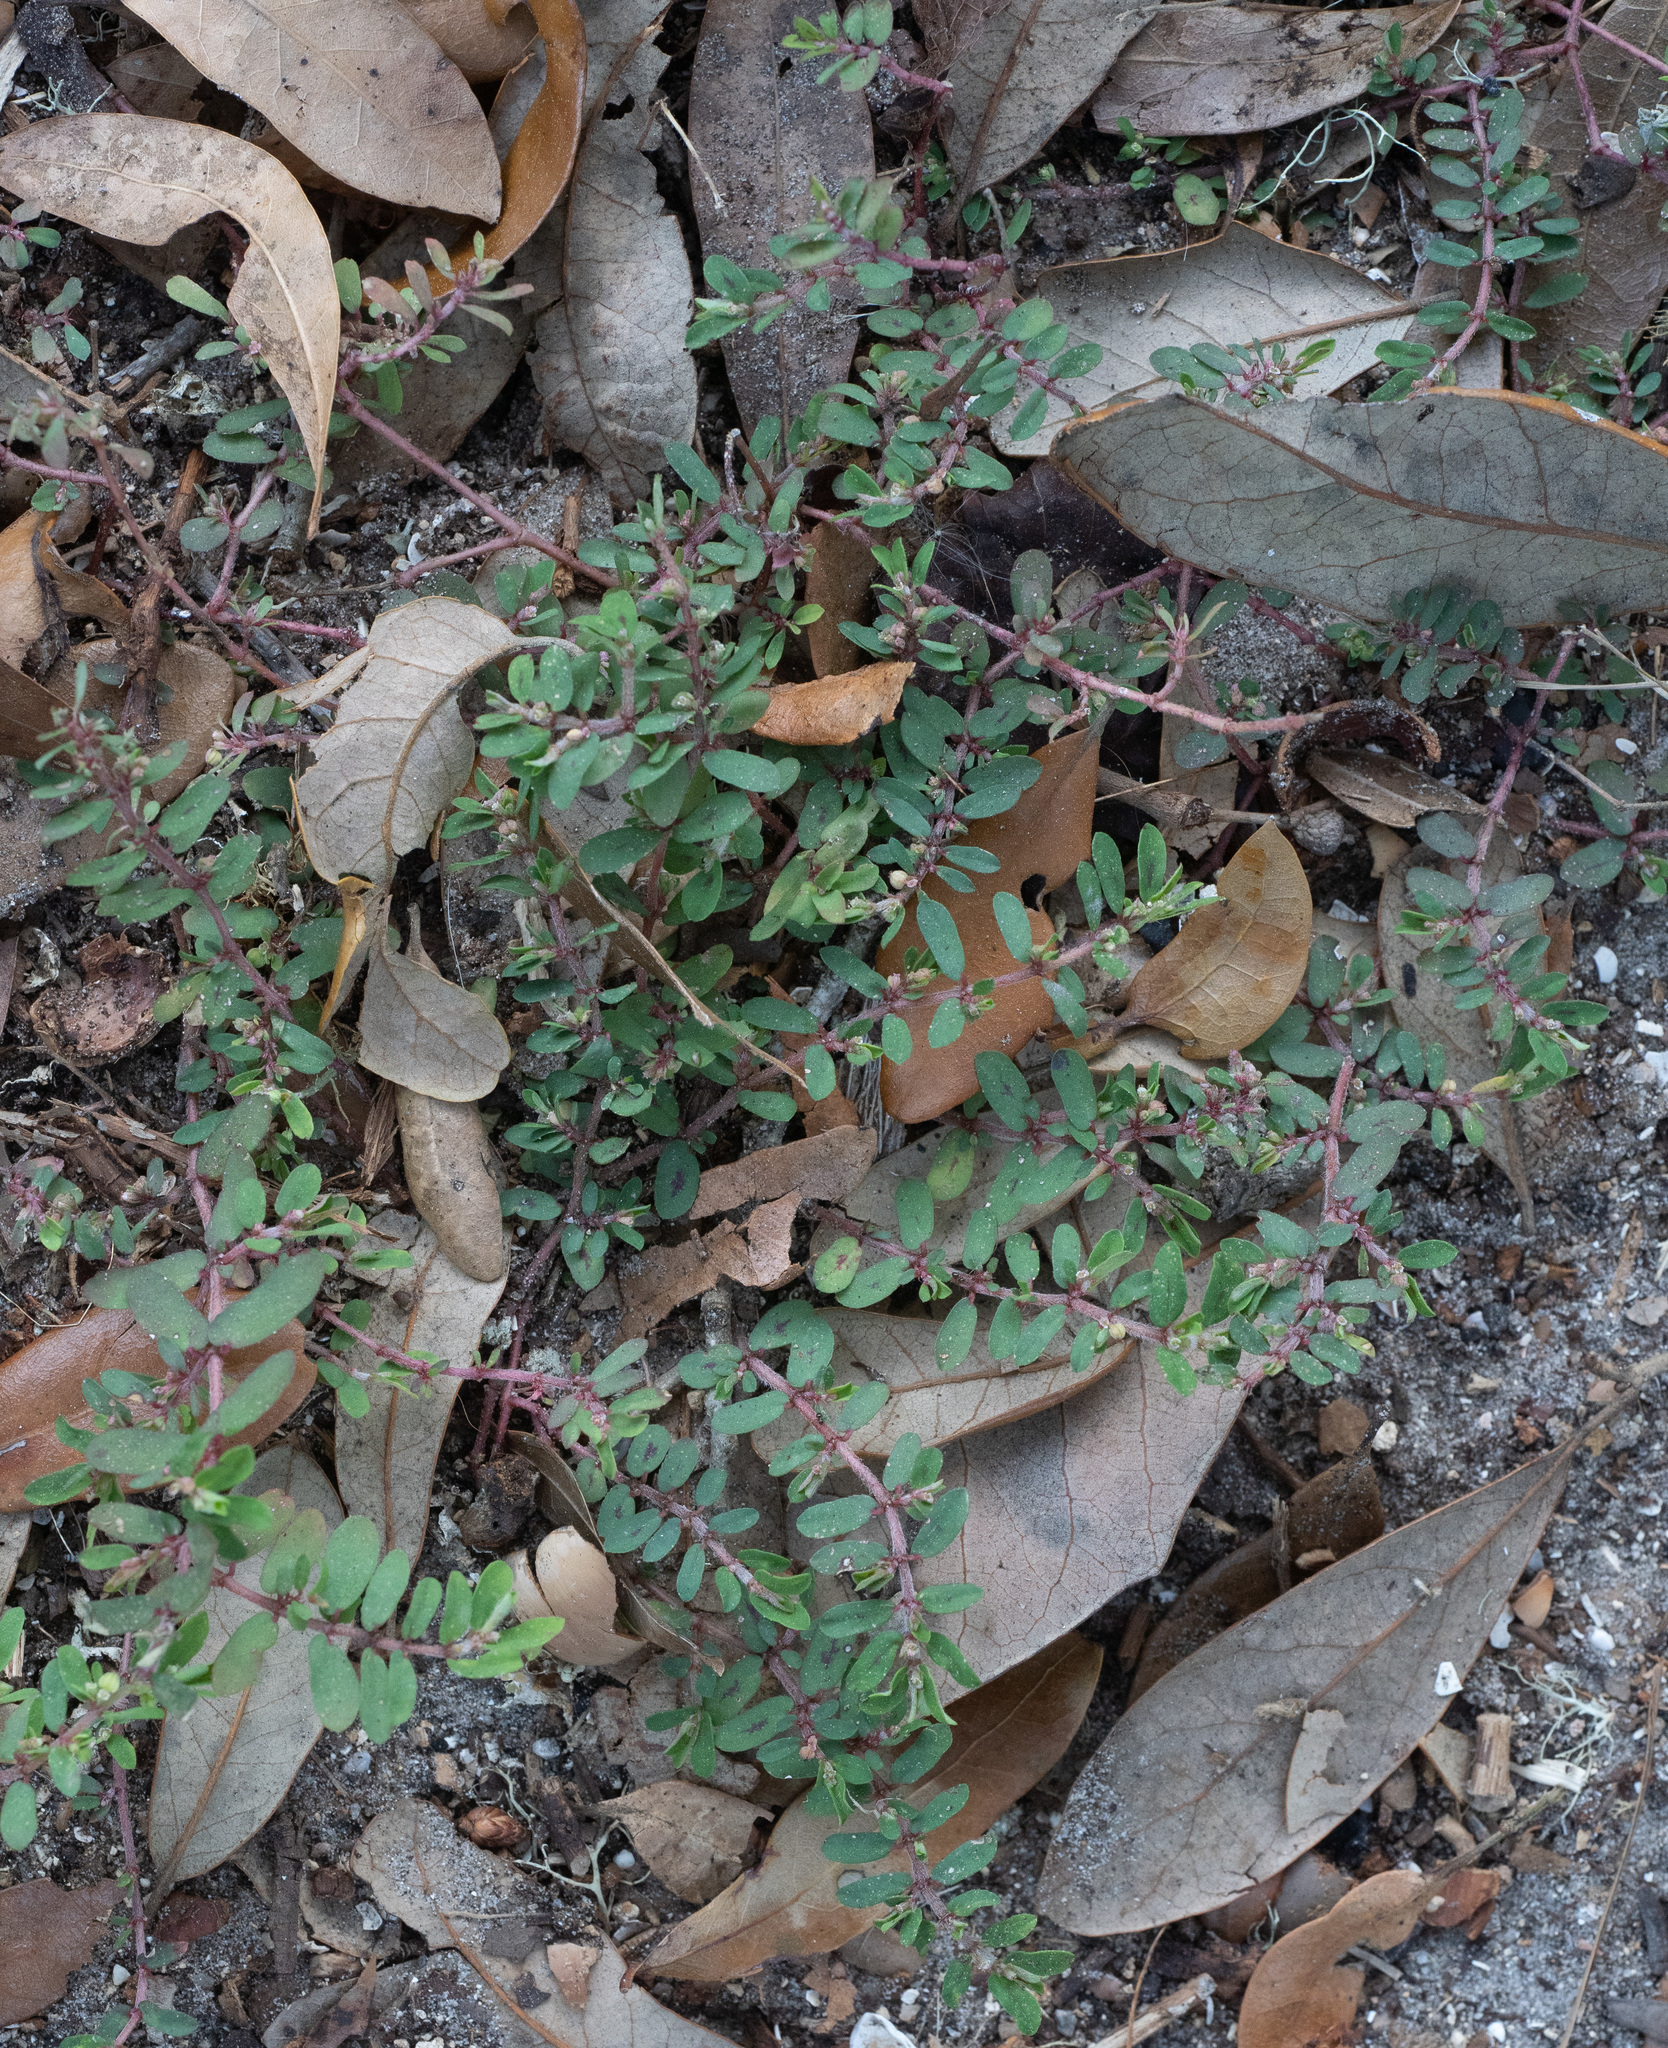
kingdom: Plantae
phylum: Tracheophyta
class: Magnoliopsida
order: Malpighiales
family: Euphorbiaceae
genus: Euphorbia
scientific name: Euphorbia maculata
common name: Spotted spurge
